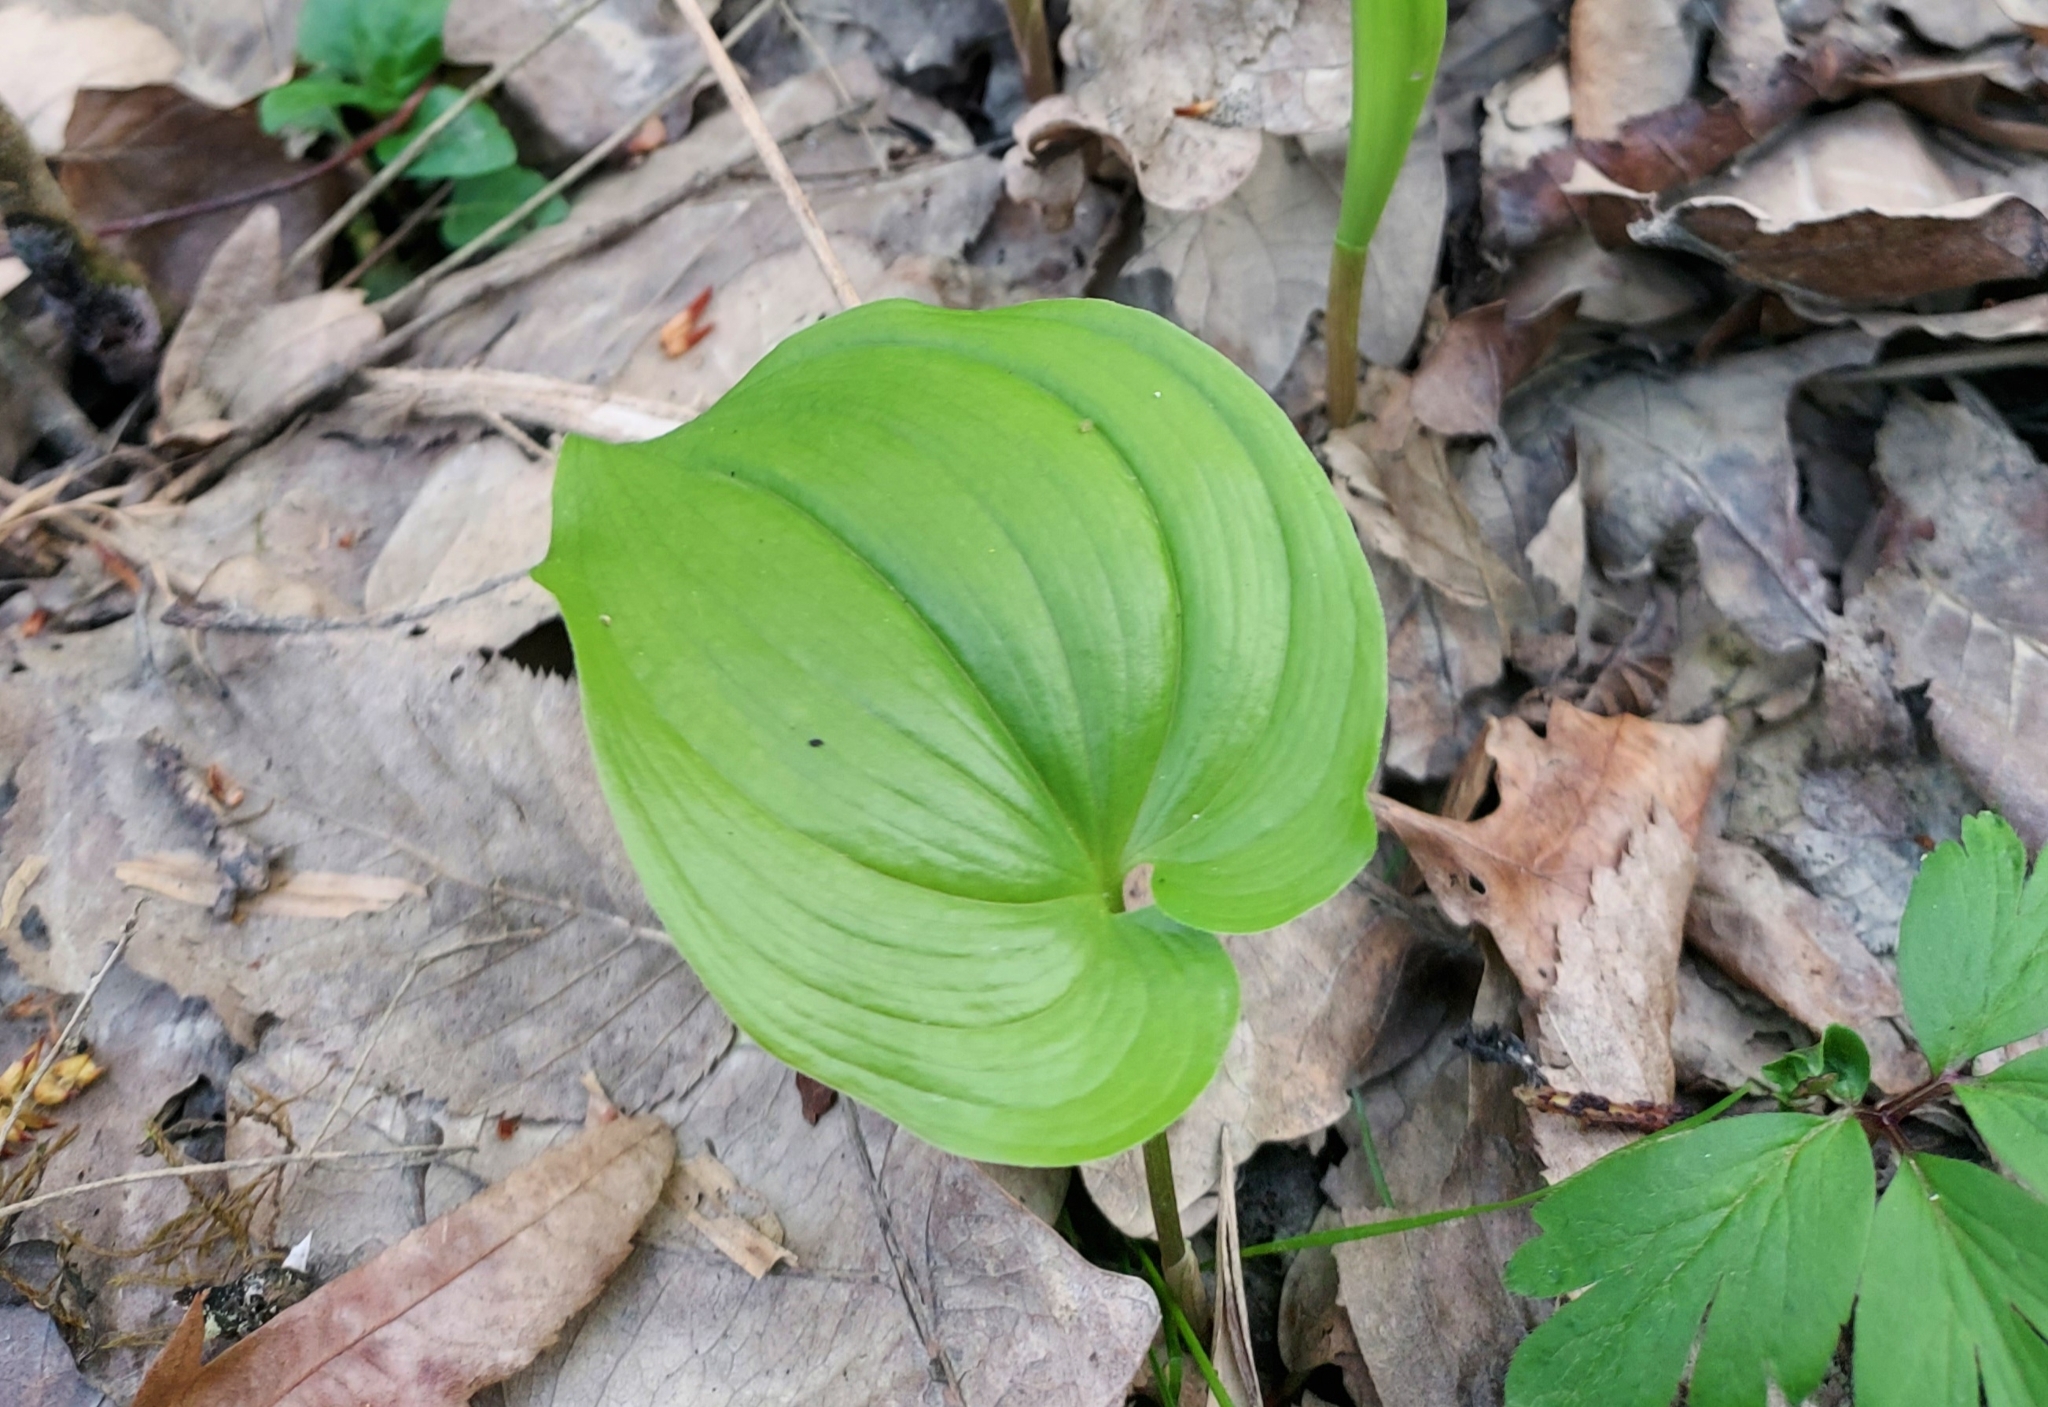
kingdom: Plantae
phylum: Tracheophyta
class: Liliopsida
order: Asparagales
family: Asparagaceae
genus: Maianthemum
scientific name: Maianthemum bifolium
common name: May lily
